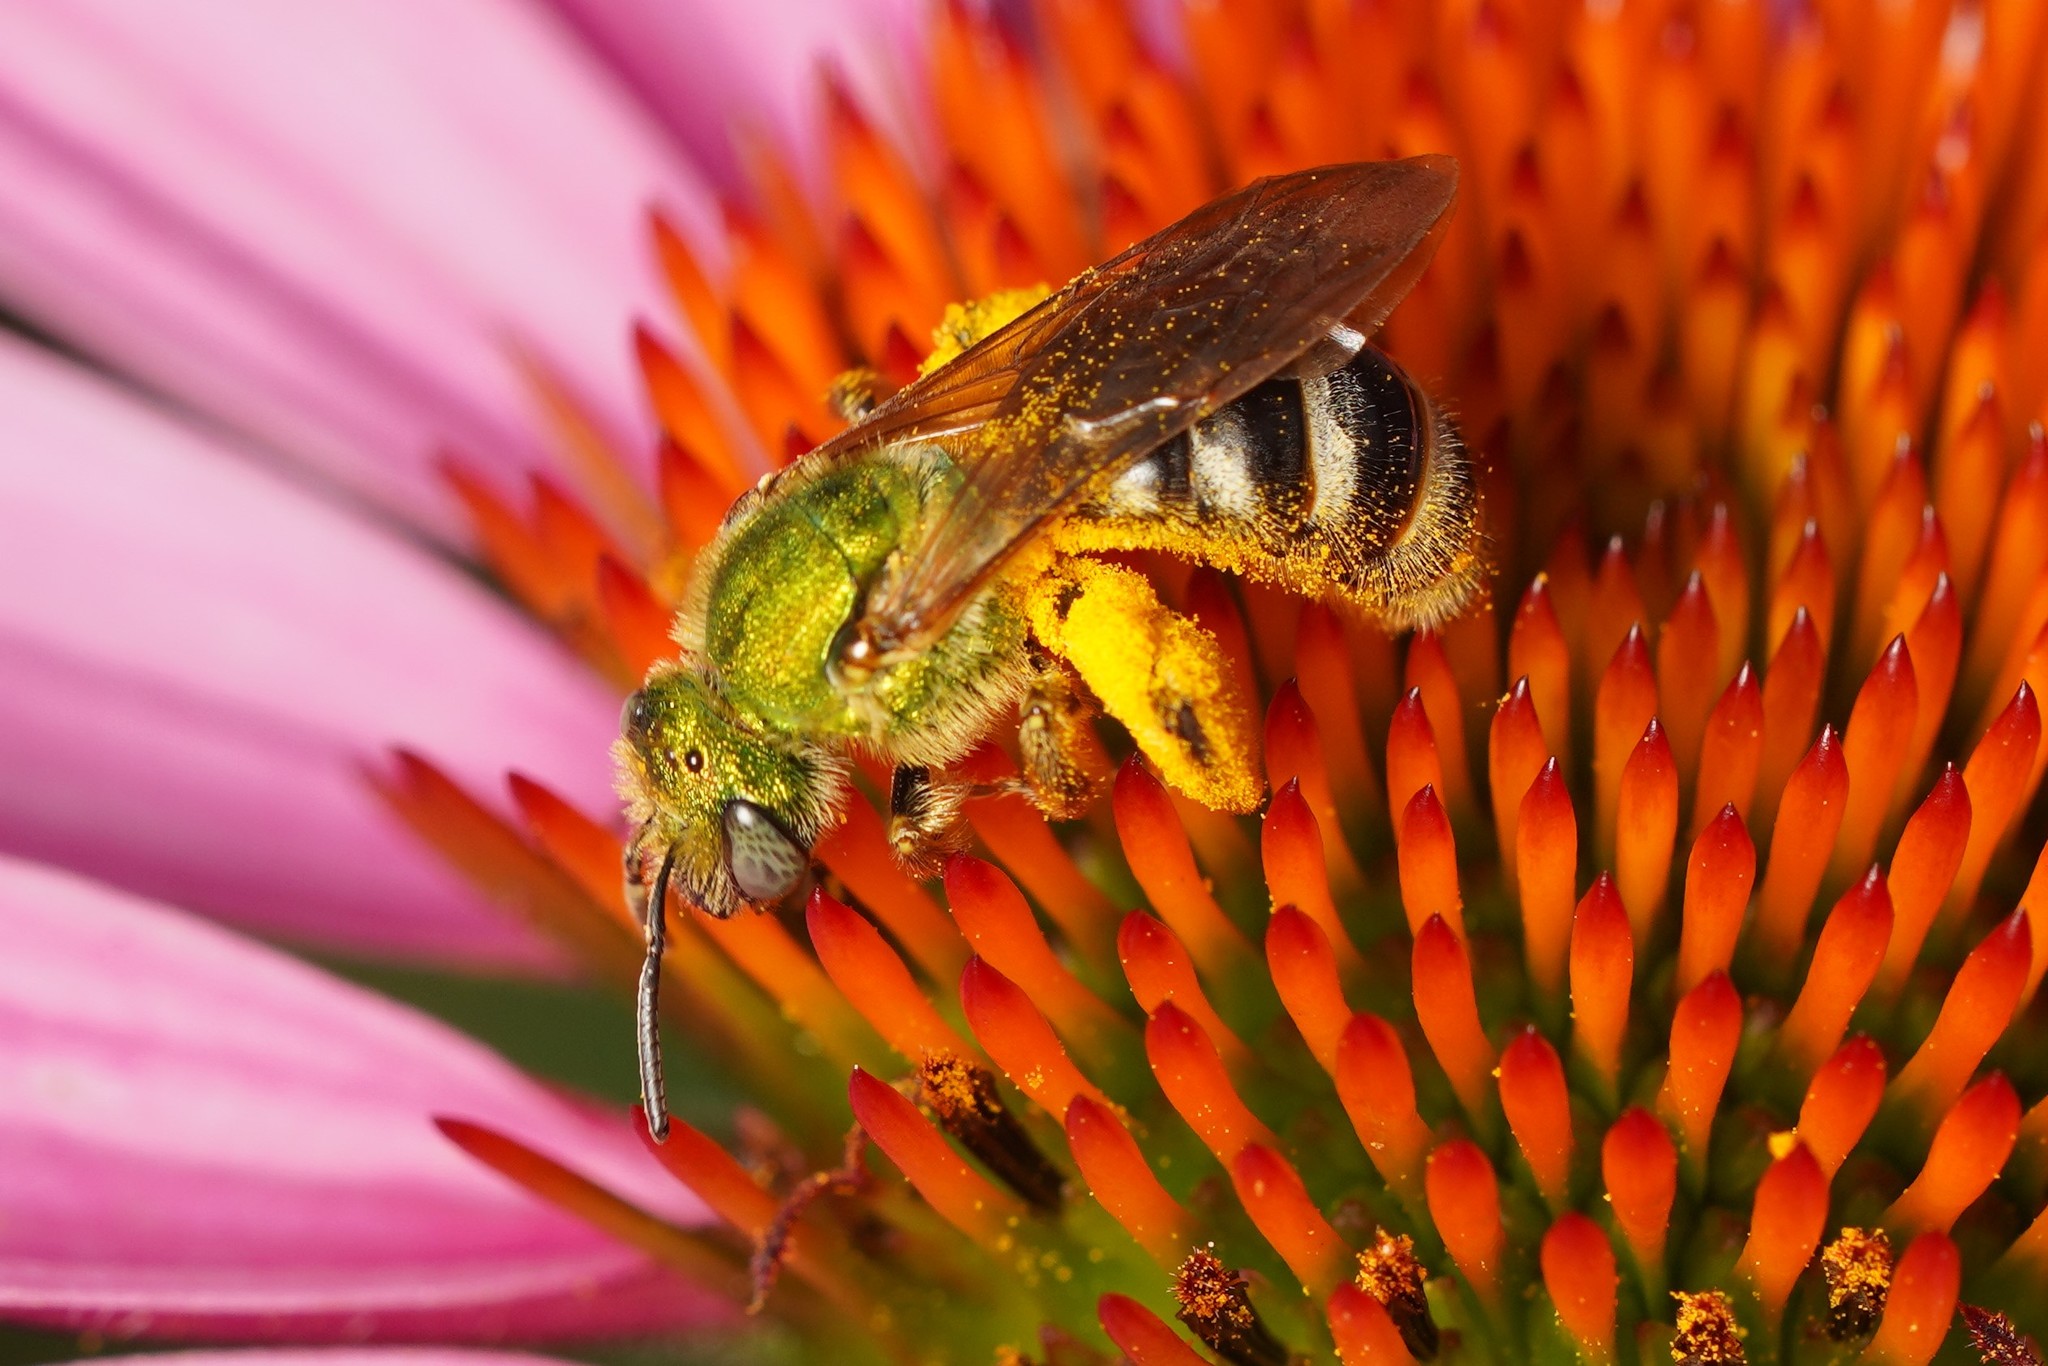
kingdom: Animalia
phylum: Arthropoda
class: Insecta
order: Hymenoptera
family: Halictidae
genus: Agapostemon
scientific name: Agapostemon virescens
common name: Bicolored striped sweat bee
